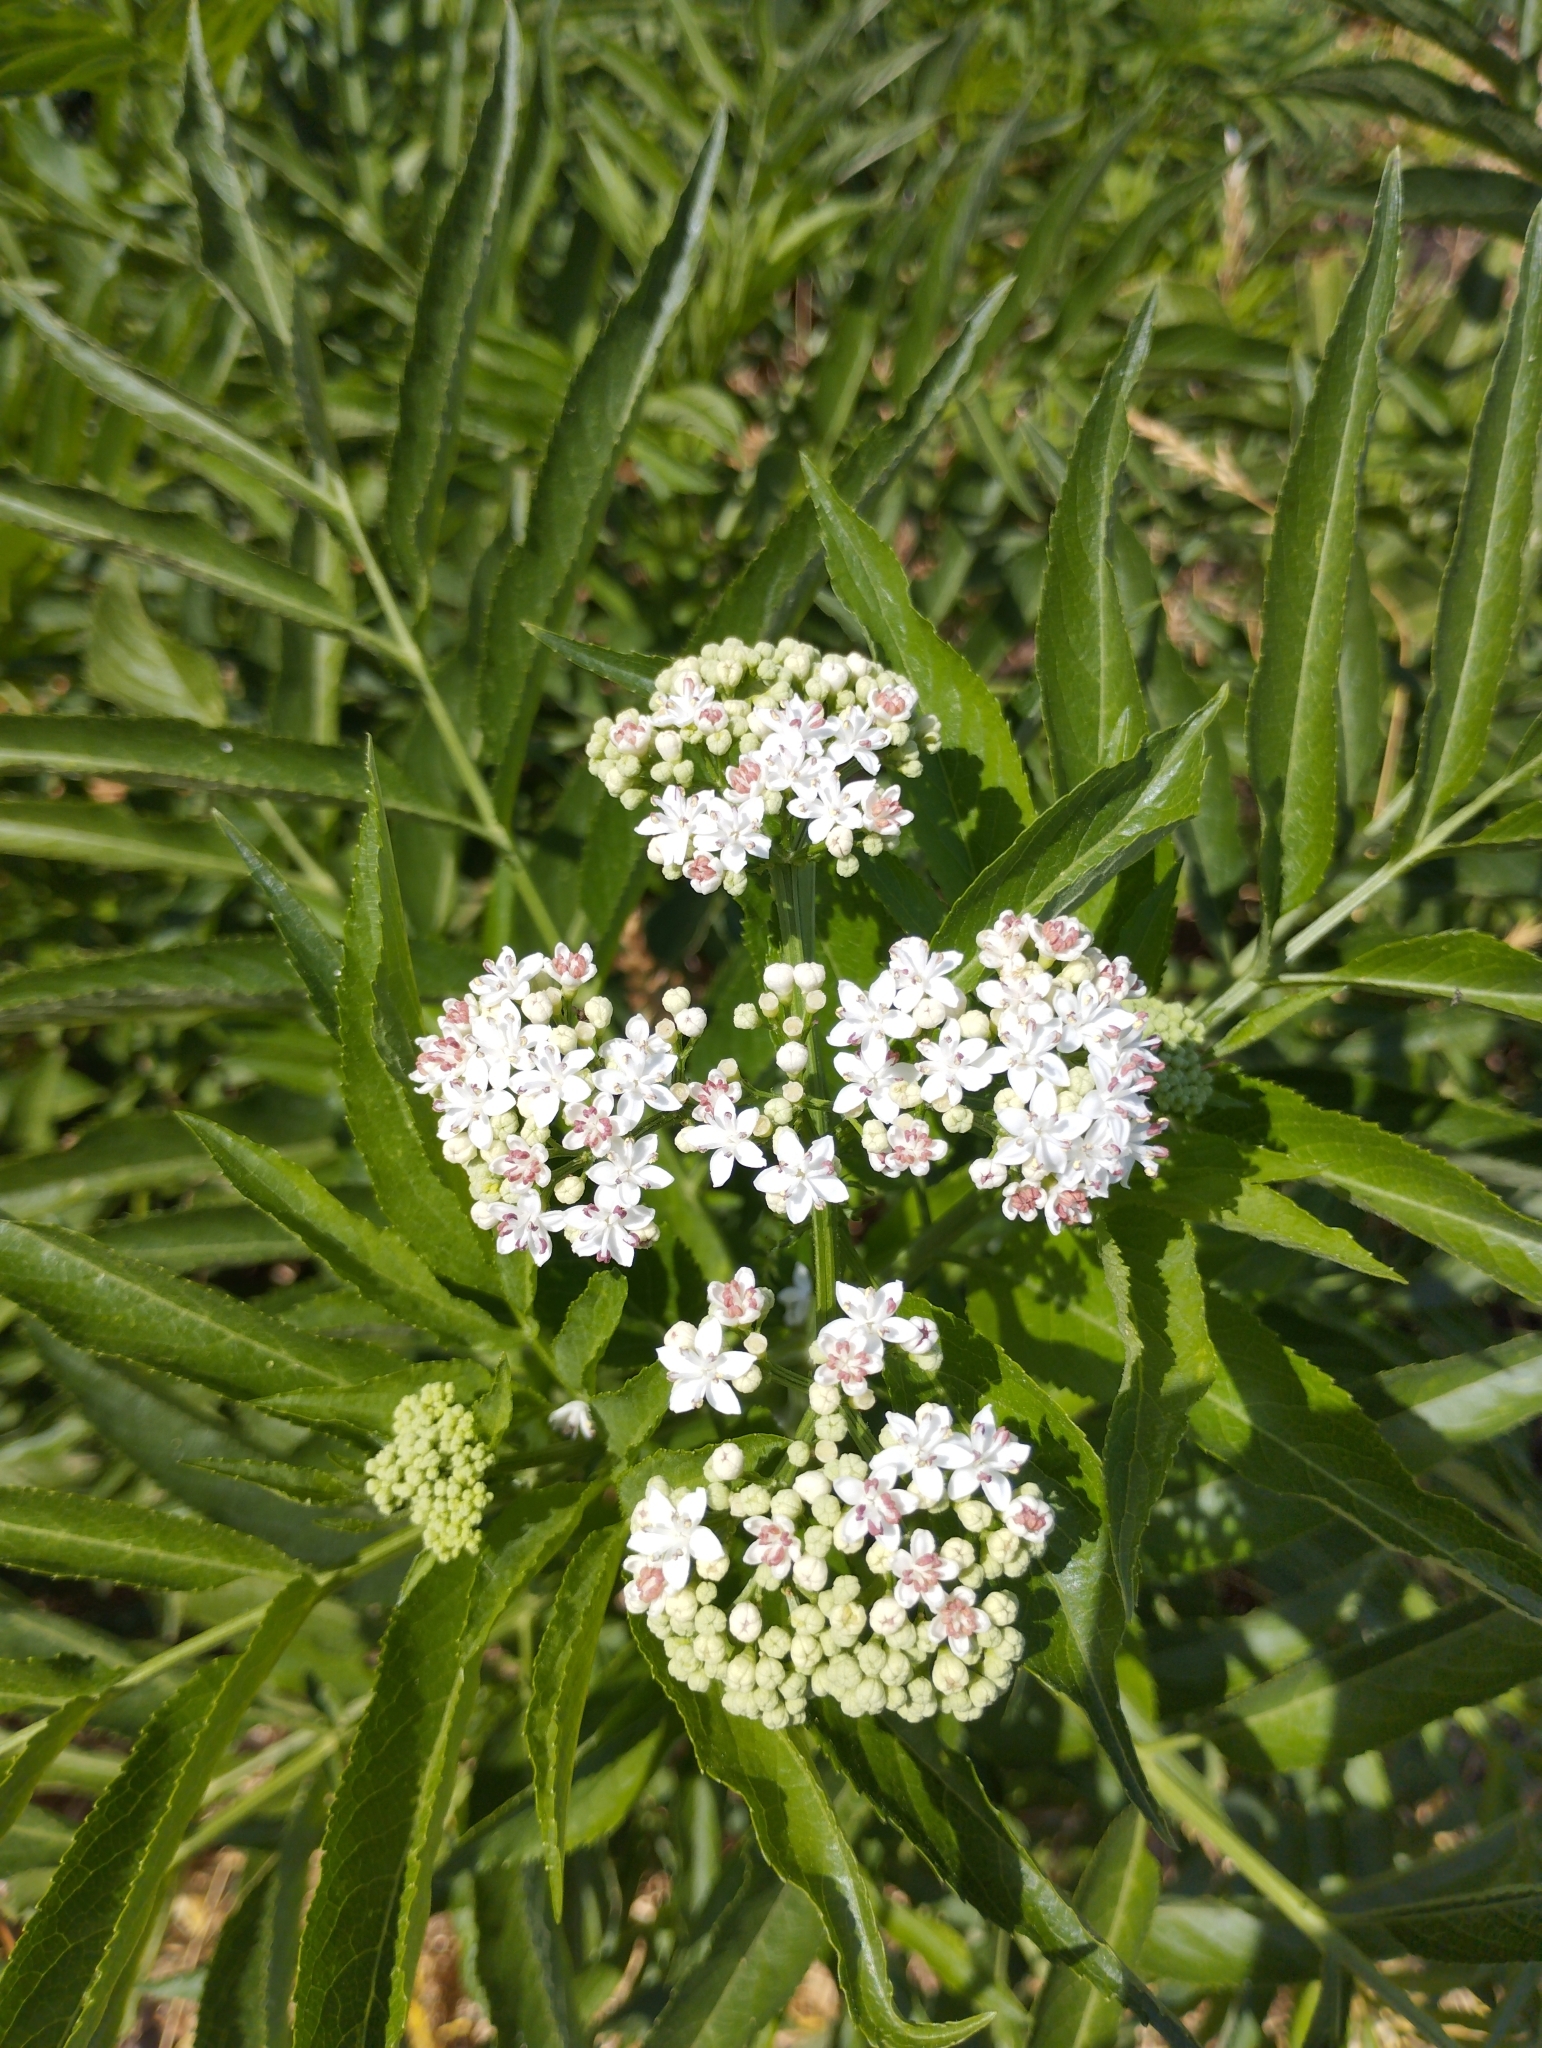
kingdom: Plantae
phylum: Tracheophyta
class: Magnoliopsida
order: Dipsacales
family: Viburnaceae
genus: Sambucus
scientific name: Sambucus ebulus
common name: Dwarf elder
